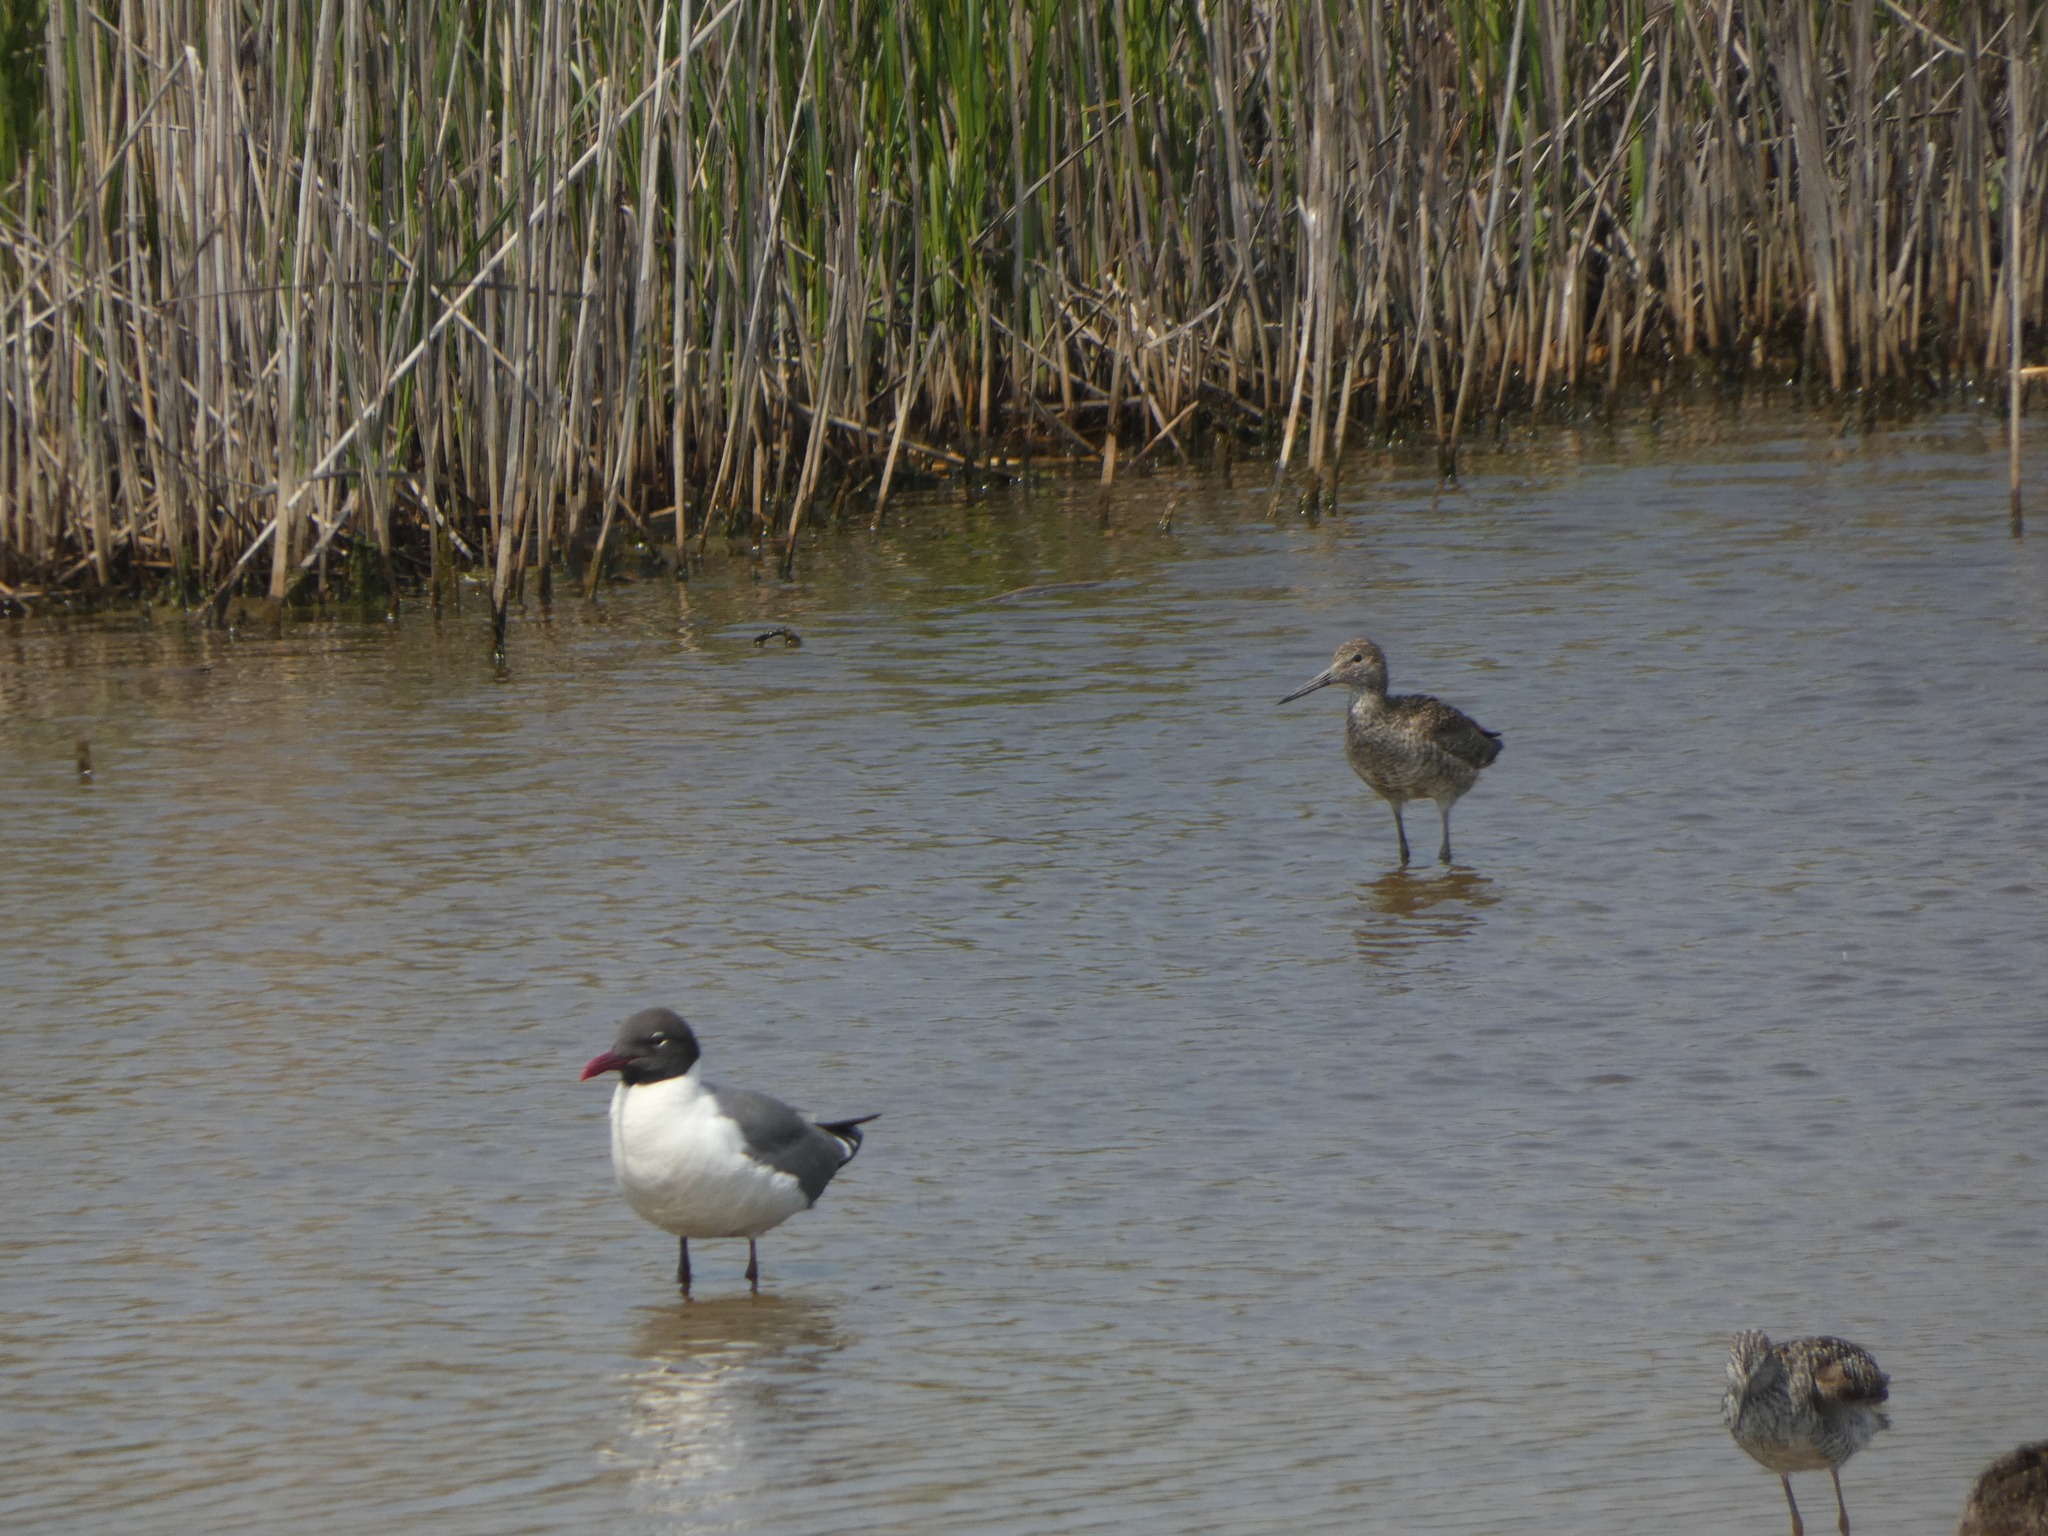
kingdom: Animalia
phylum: Chordata
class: Aves
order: Charadriiformes
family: Laridae
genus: Leucophaeus
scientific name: Leucophaeus atricilla
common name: Laughing gull
